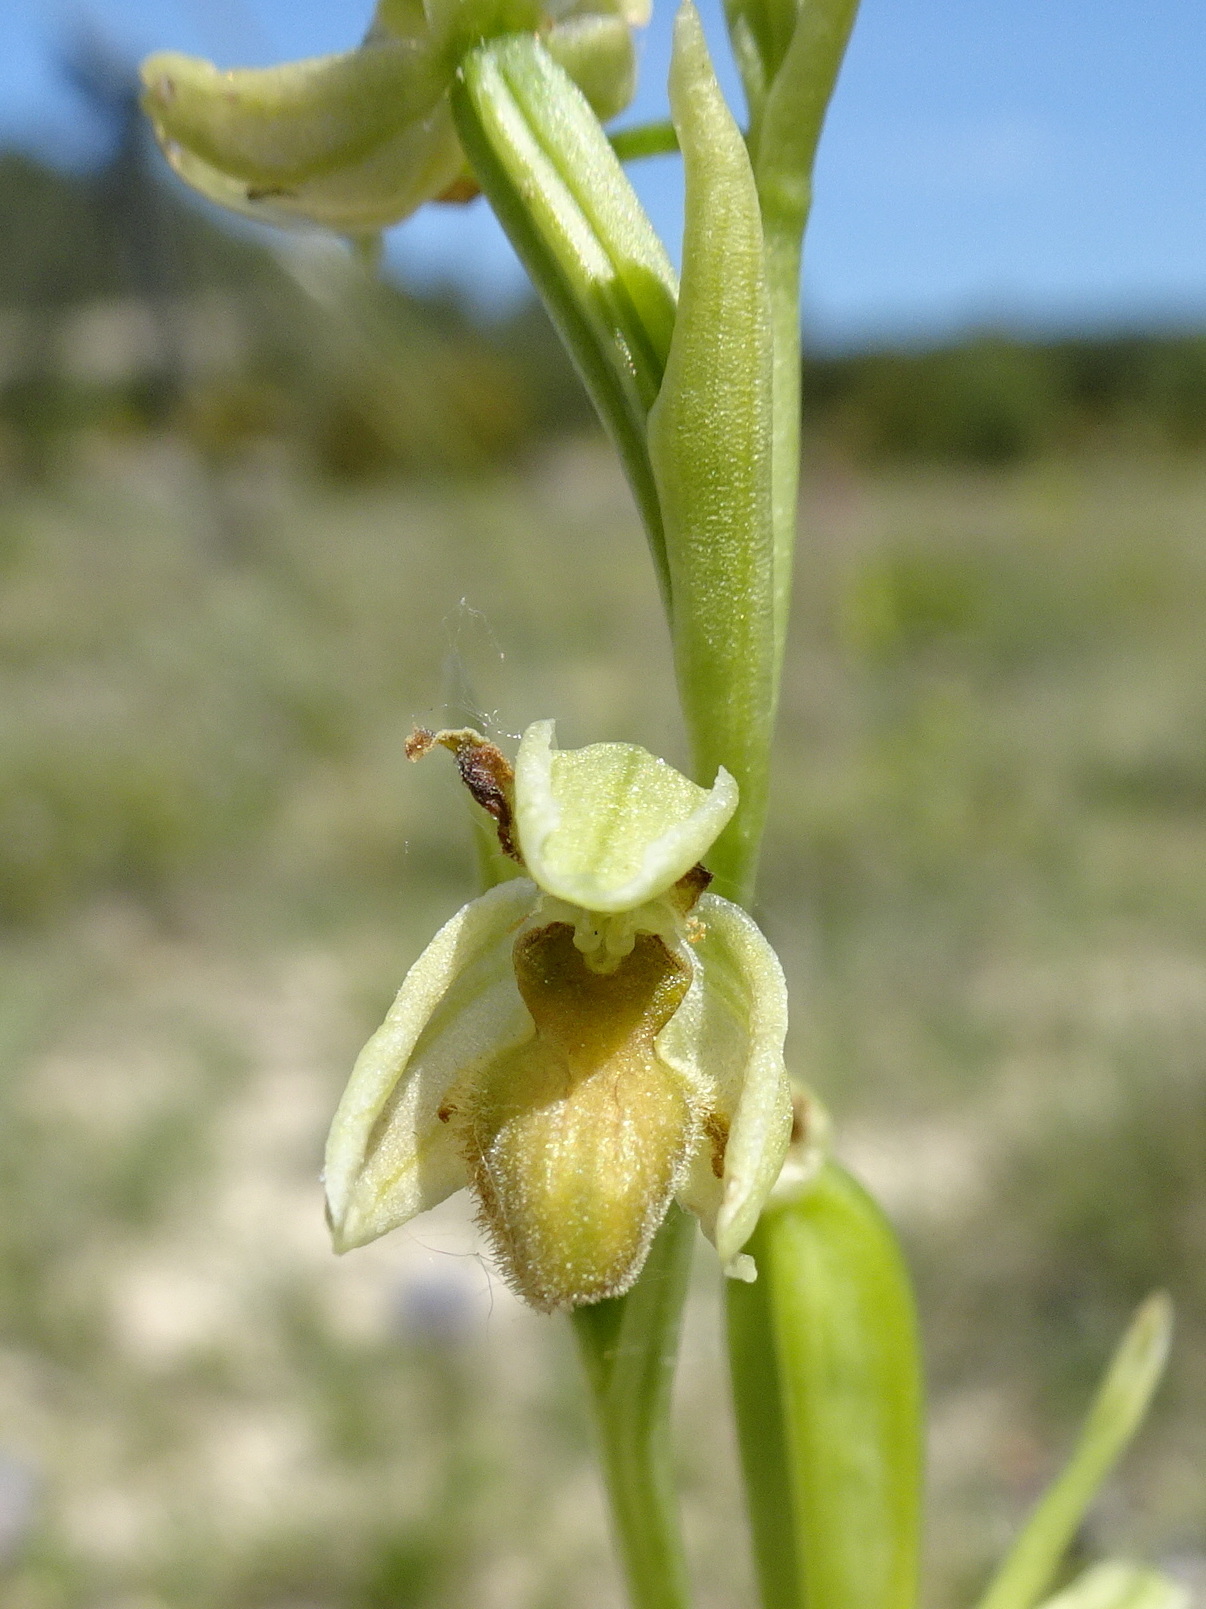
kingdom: Plantae
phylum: Tracheophyta
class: Liliopsida
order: Asparagales
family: Orchidaceae
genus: Ophrys
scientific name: Ophrys sphegodes
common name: Early spider-orchid
